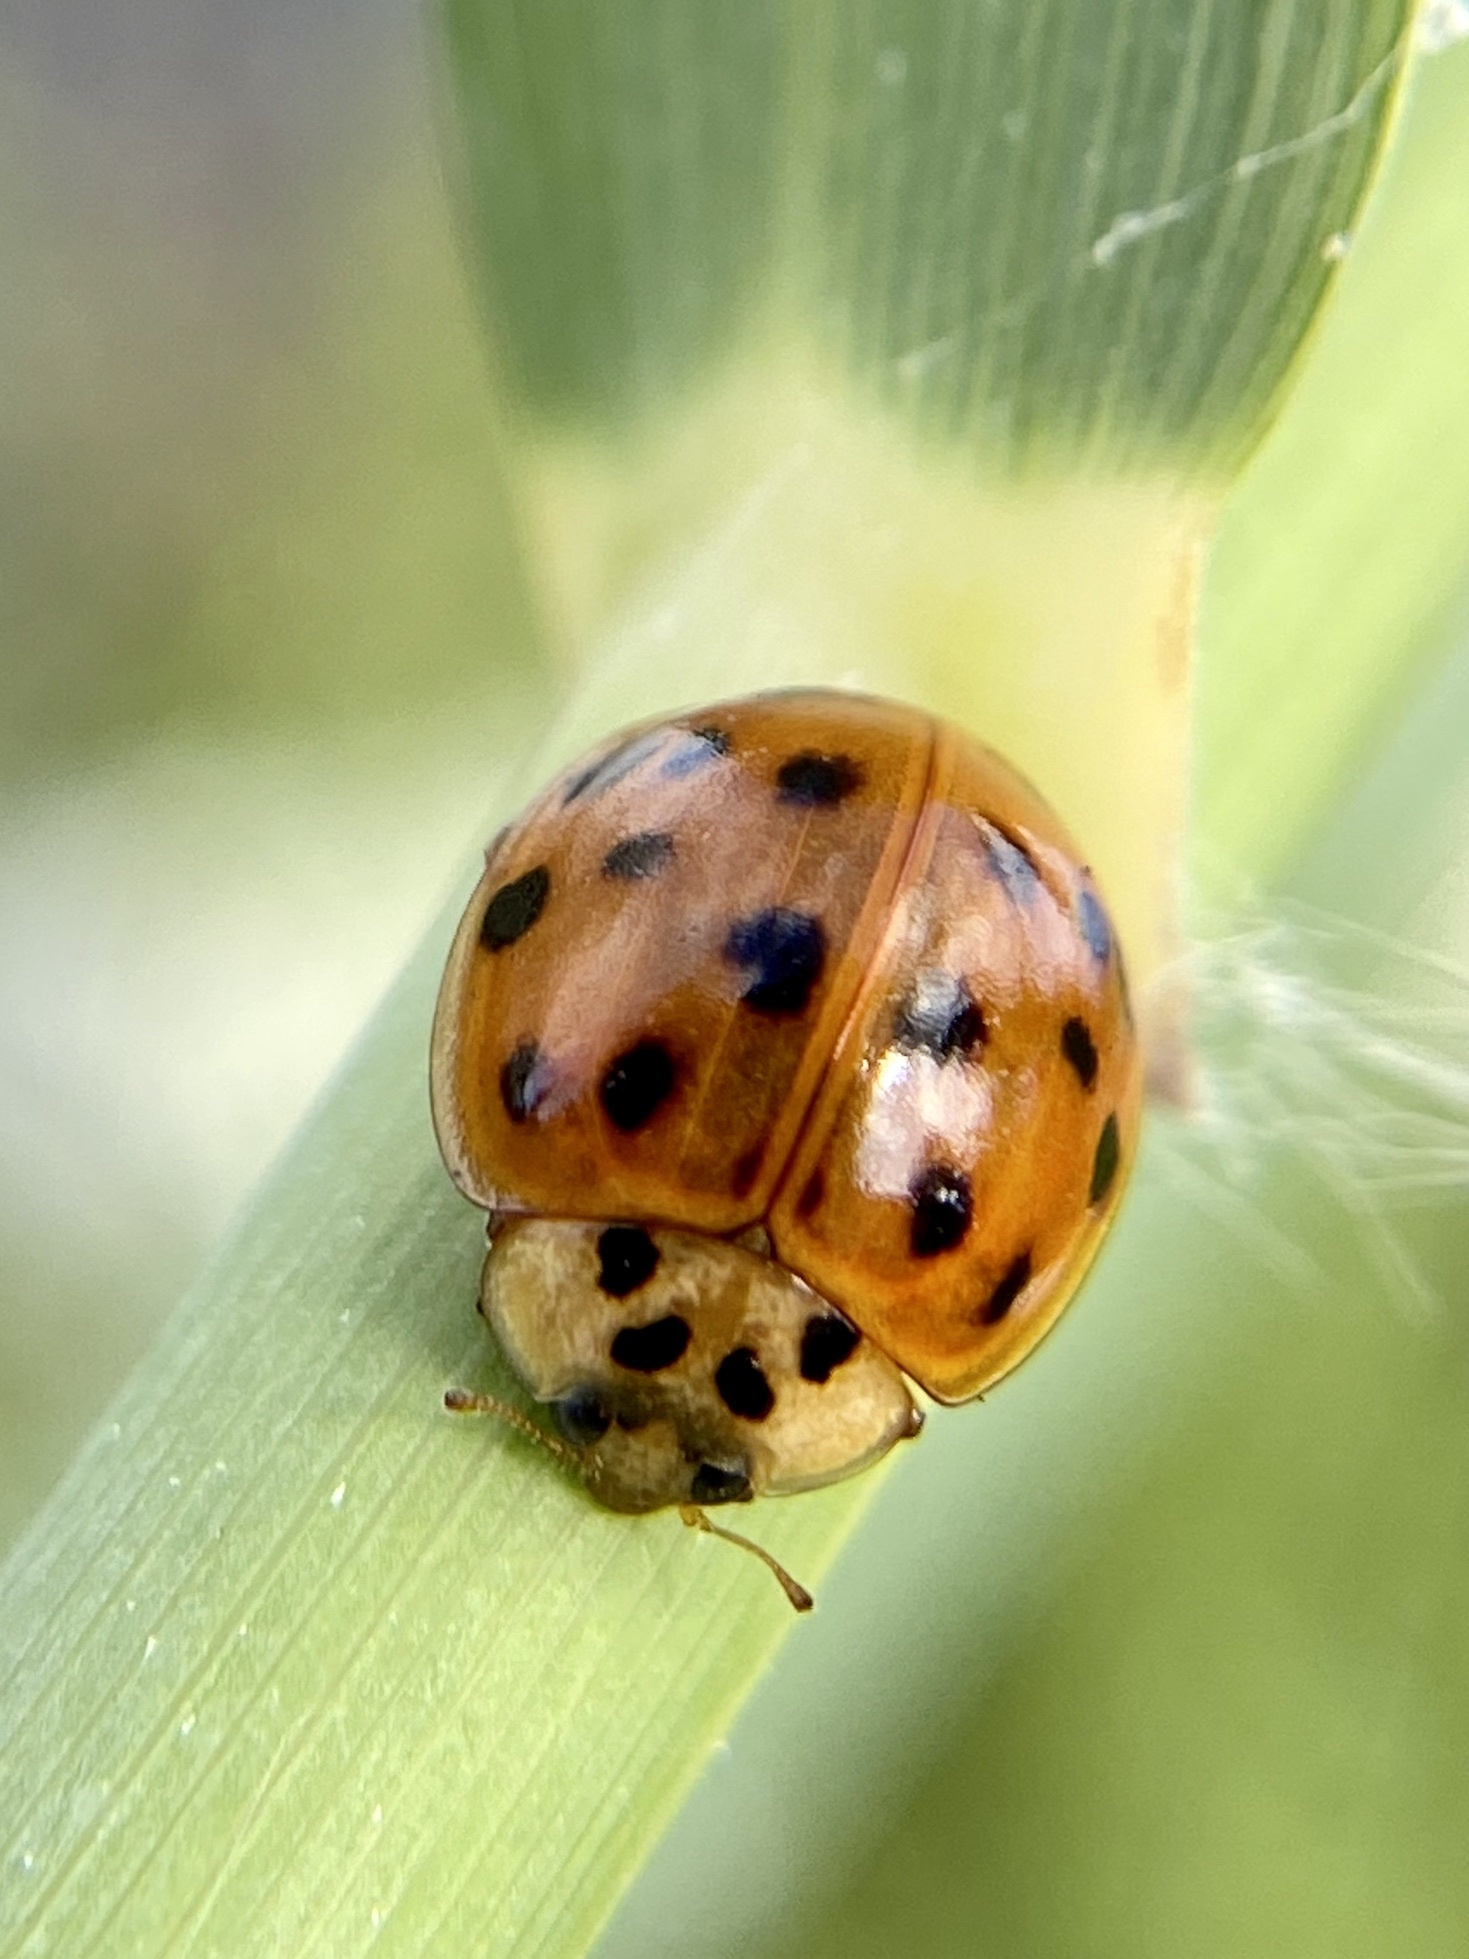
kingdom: Animalia
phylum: Arthropoda
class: Insecta
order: Coleoptera
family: Coccinellidae
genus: Harmonia
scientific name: Harmonia axyridis
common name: Harlequin ladybird
